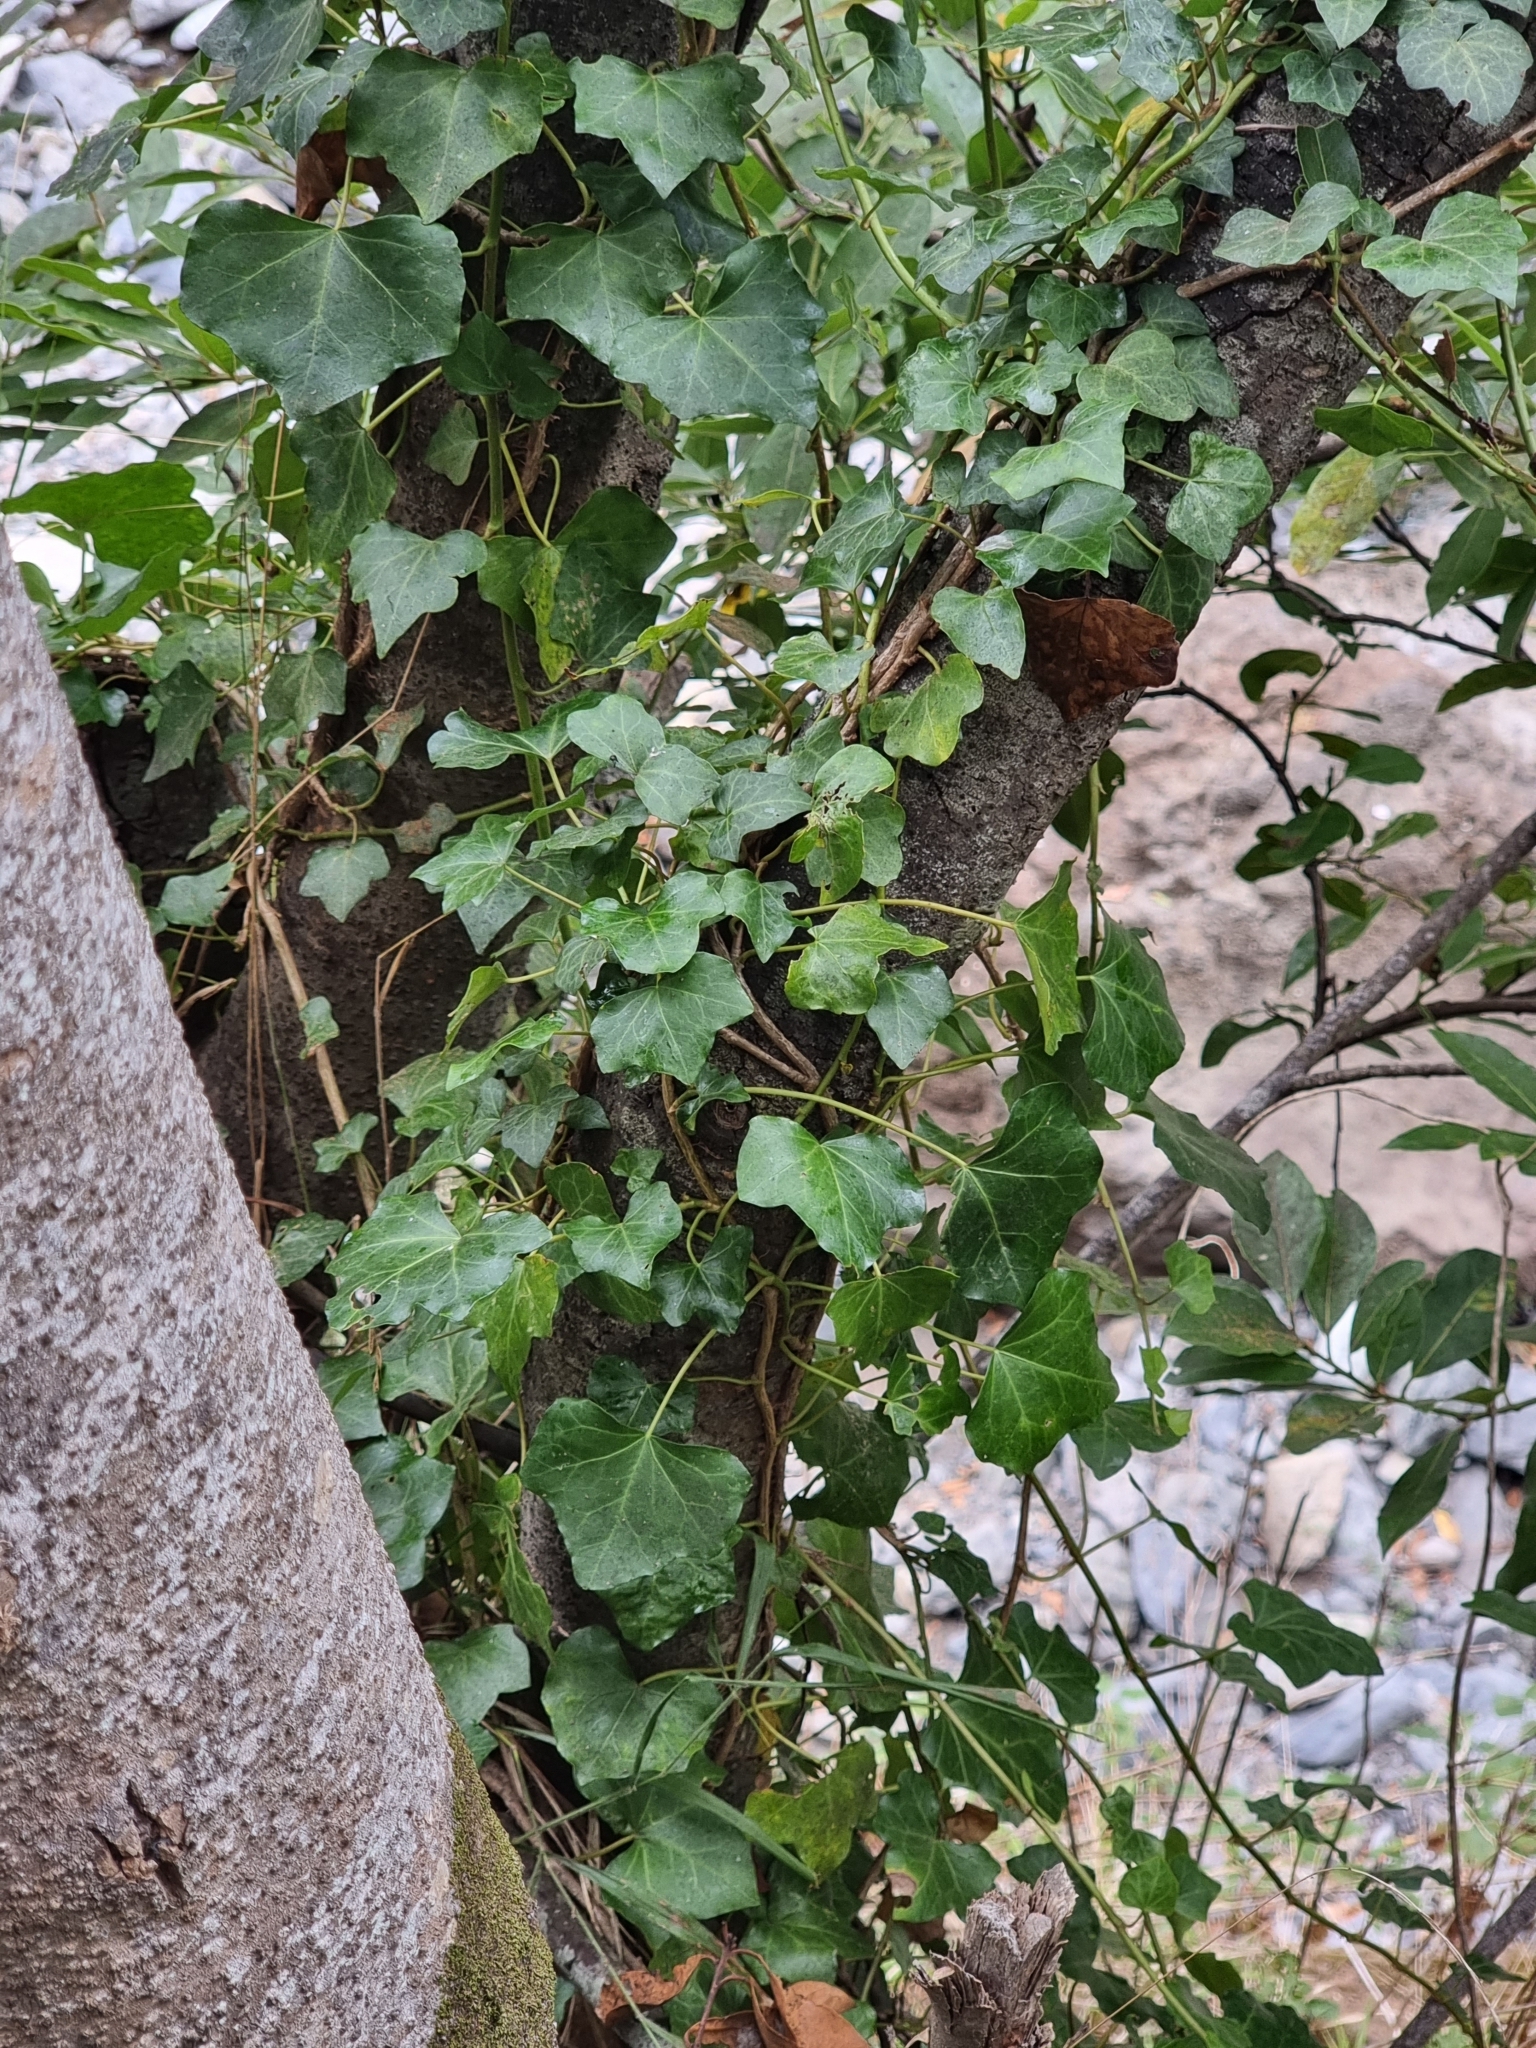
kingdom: Plantae
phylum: Tracheophyta
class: Magnoliopsida
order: Apiales
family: Araliaceae
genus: Hedera
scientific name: Hedera maderensis
